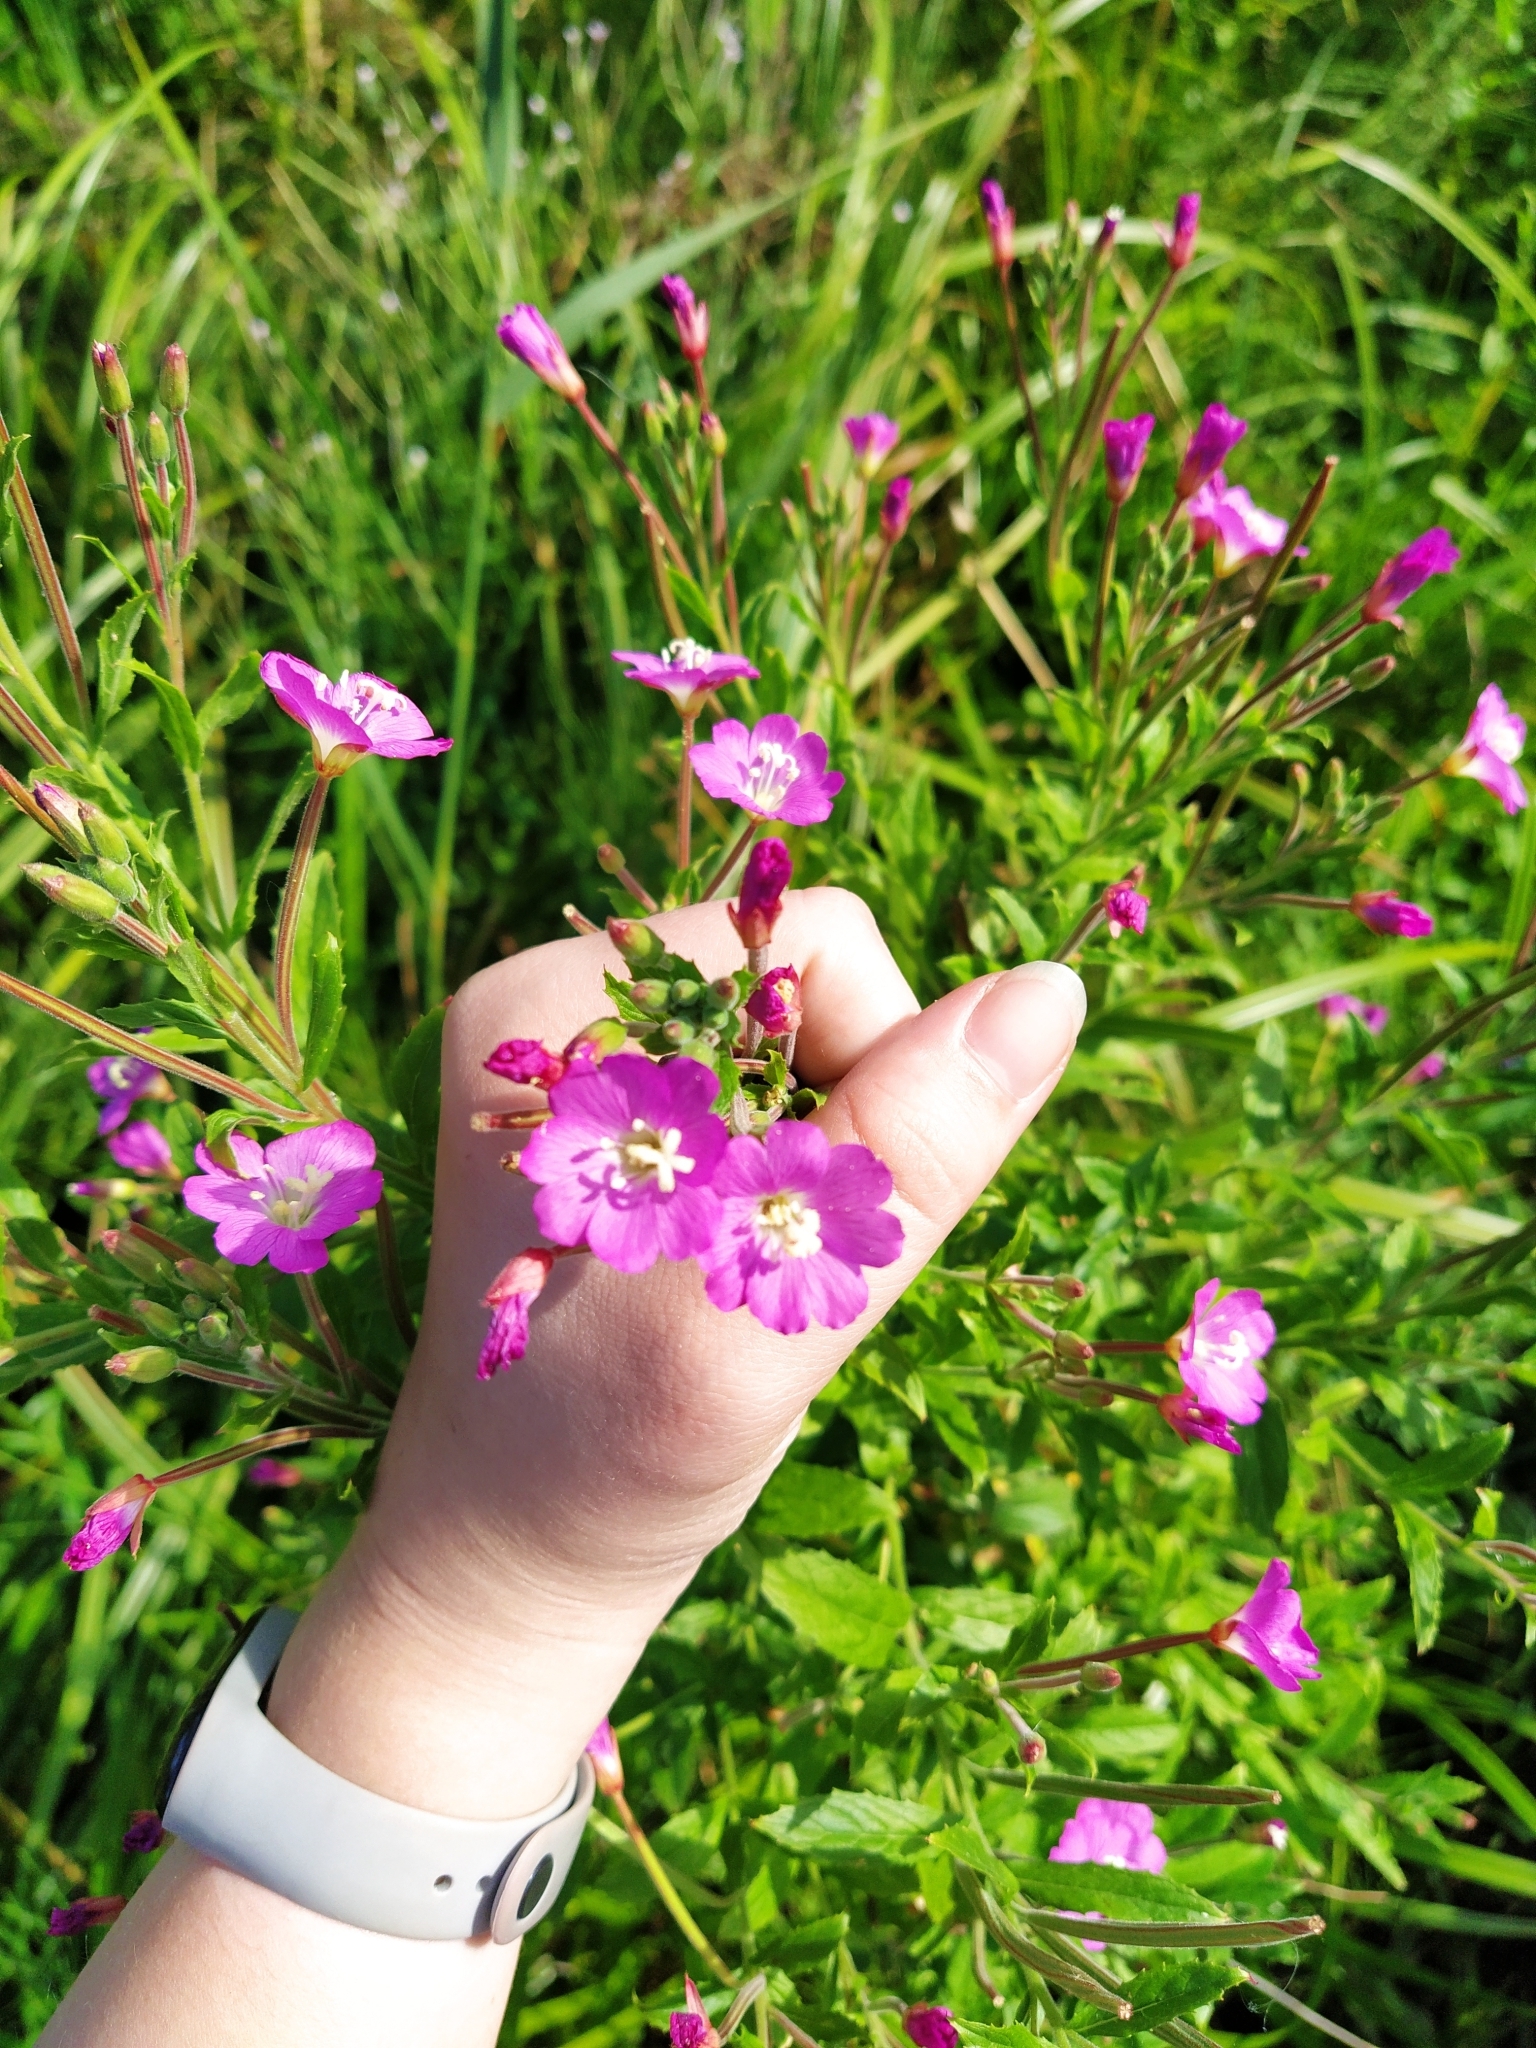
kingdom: Plantae
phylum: Tracheophyta
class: Magnoliopsida
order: Myrtales
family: Onagraceae
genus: Epilobium
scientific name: Epilobium hirsutum
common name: Great willowherb
